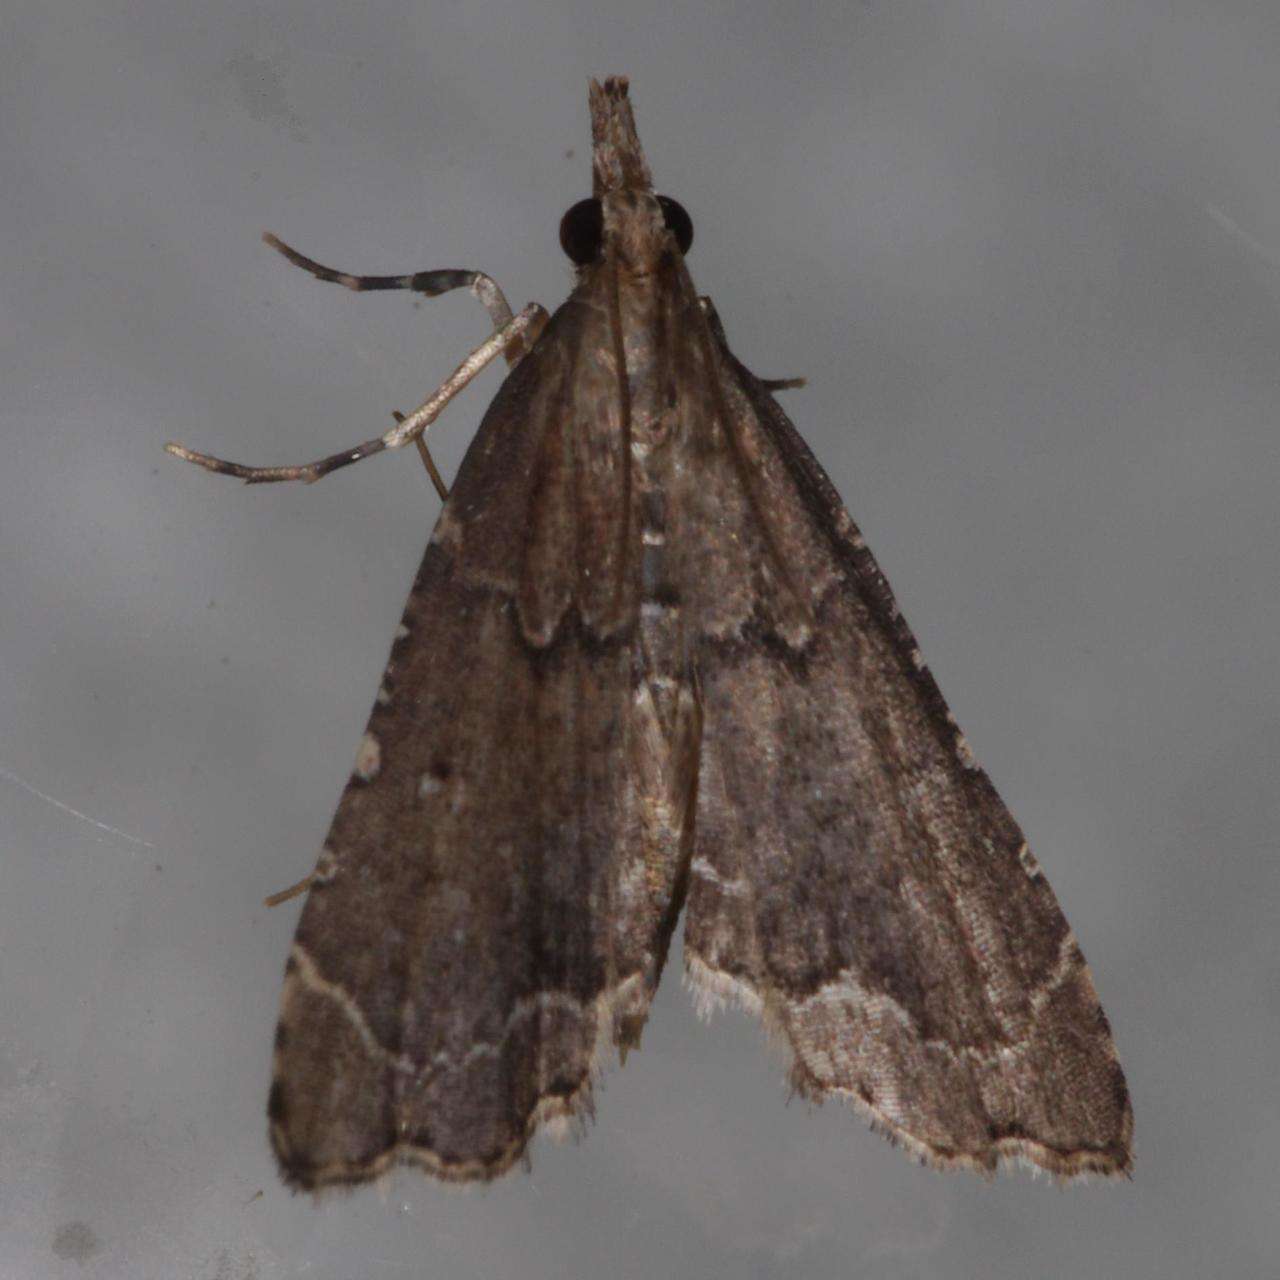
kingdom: Animalia
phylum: Arthropoda
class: Insecta
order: Lepidoptera
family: Crambidae
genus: Diplopseustis
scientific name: Diplopseustis perieresalis
